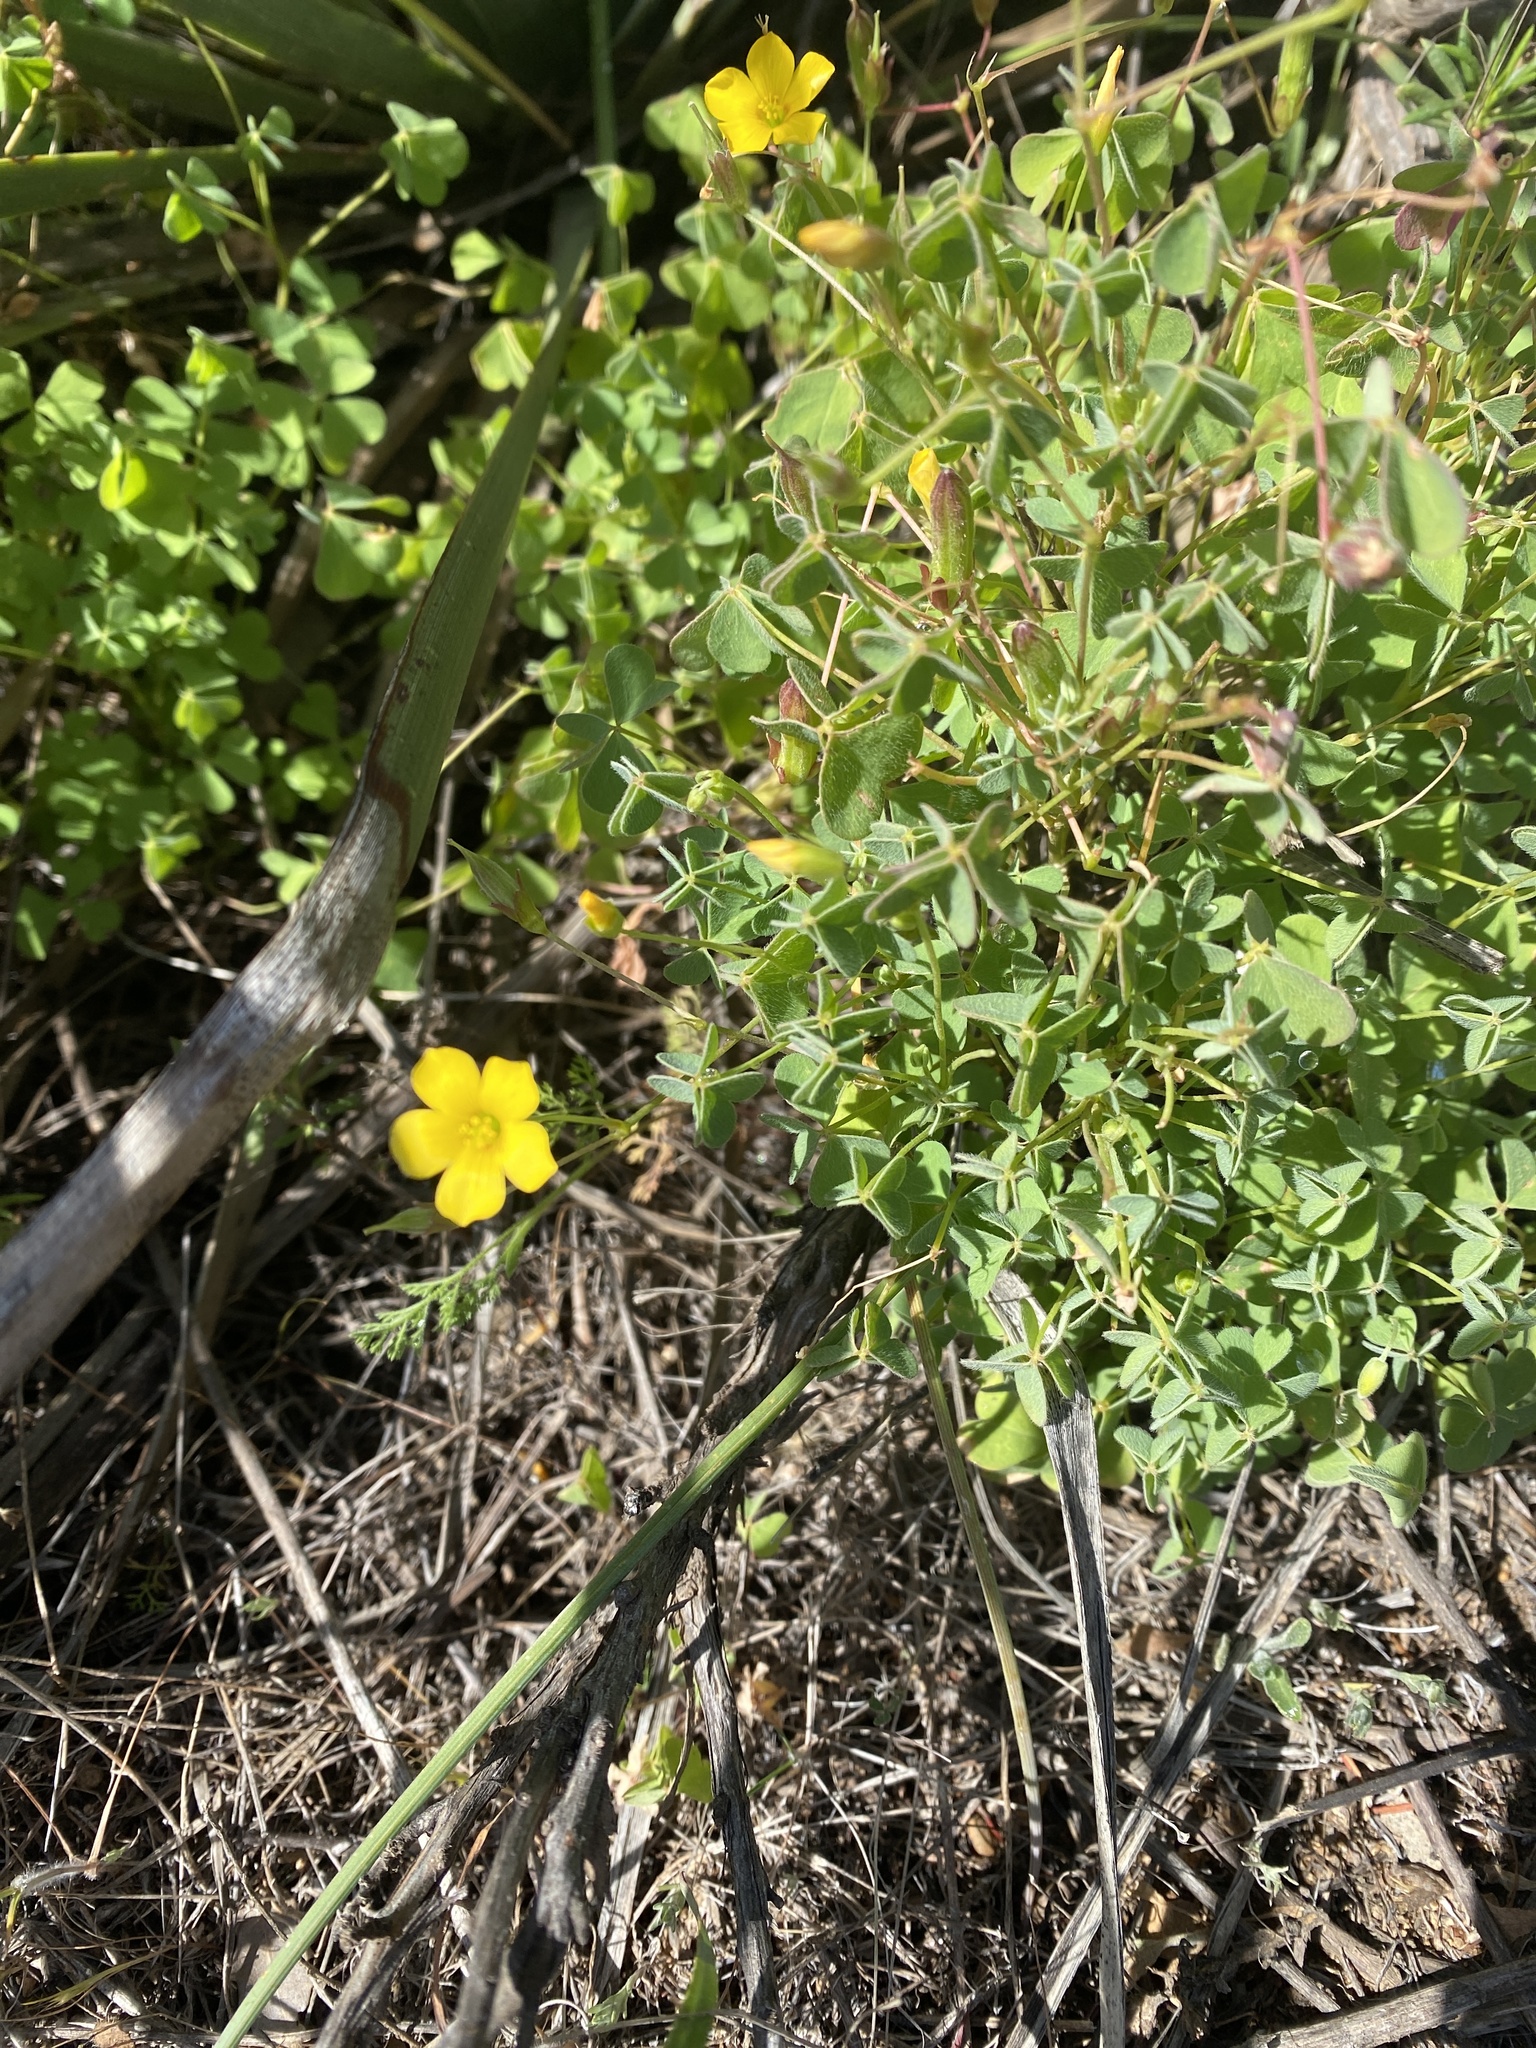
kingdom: Plantae
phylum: Tracheophyta
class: Magnoliopsida
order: Oxalidales
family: Oxalidaceae
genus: Oxalis
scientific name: Oxalis californica
